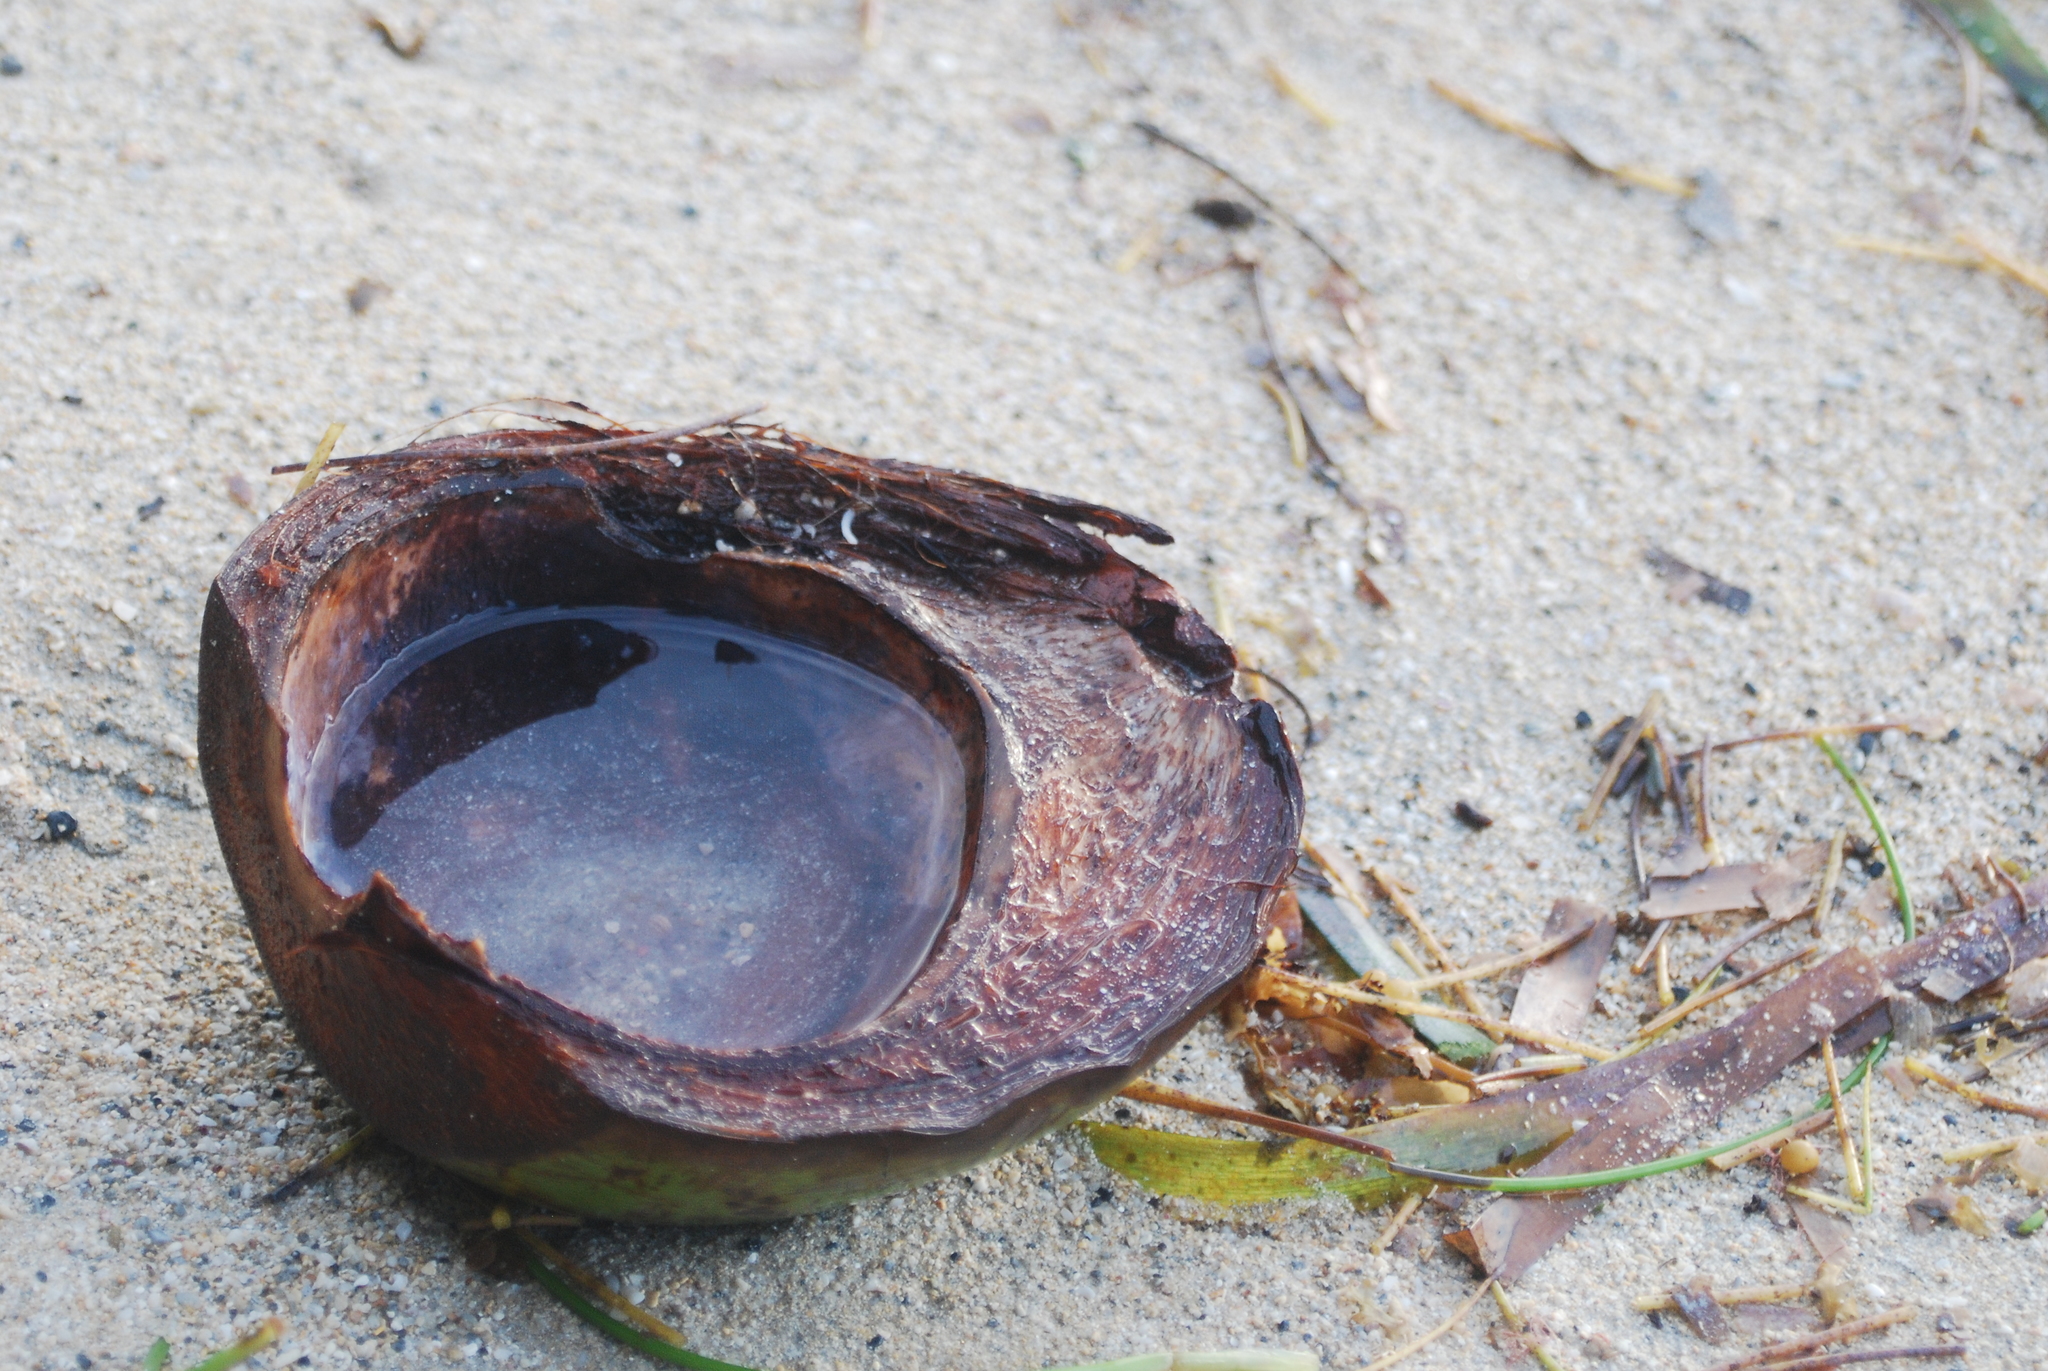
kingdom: Plantae
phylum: Tracheophyta
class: Liliopsida
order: Arecales
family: Arecaceae
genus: Cocos
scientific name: Cocos nucifera
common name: Coconut palm
